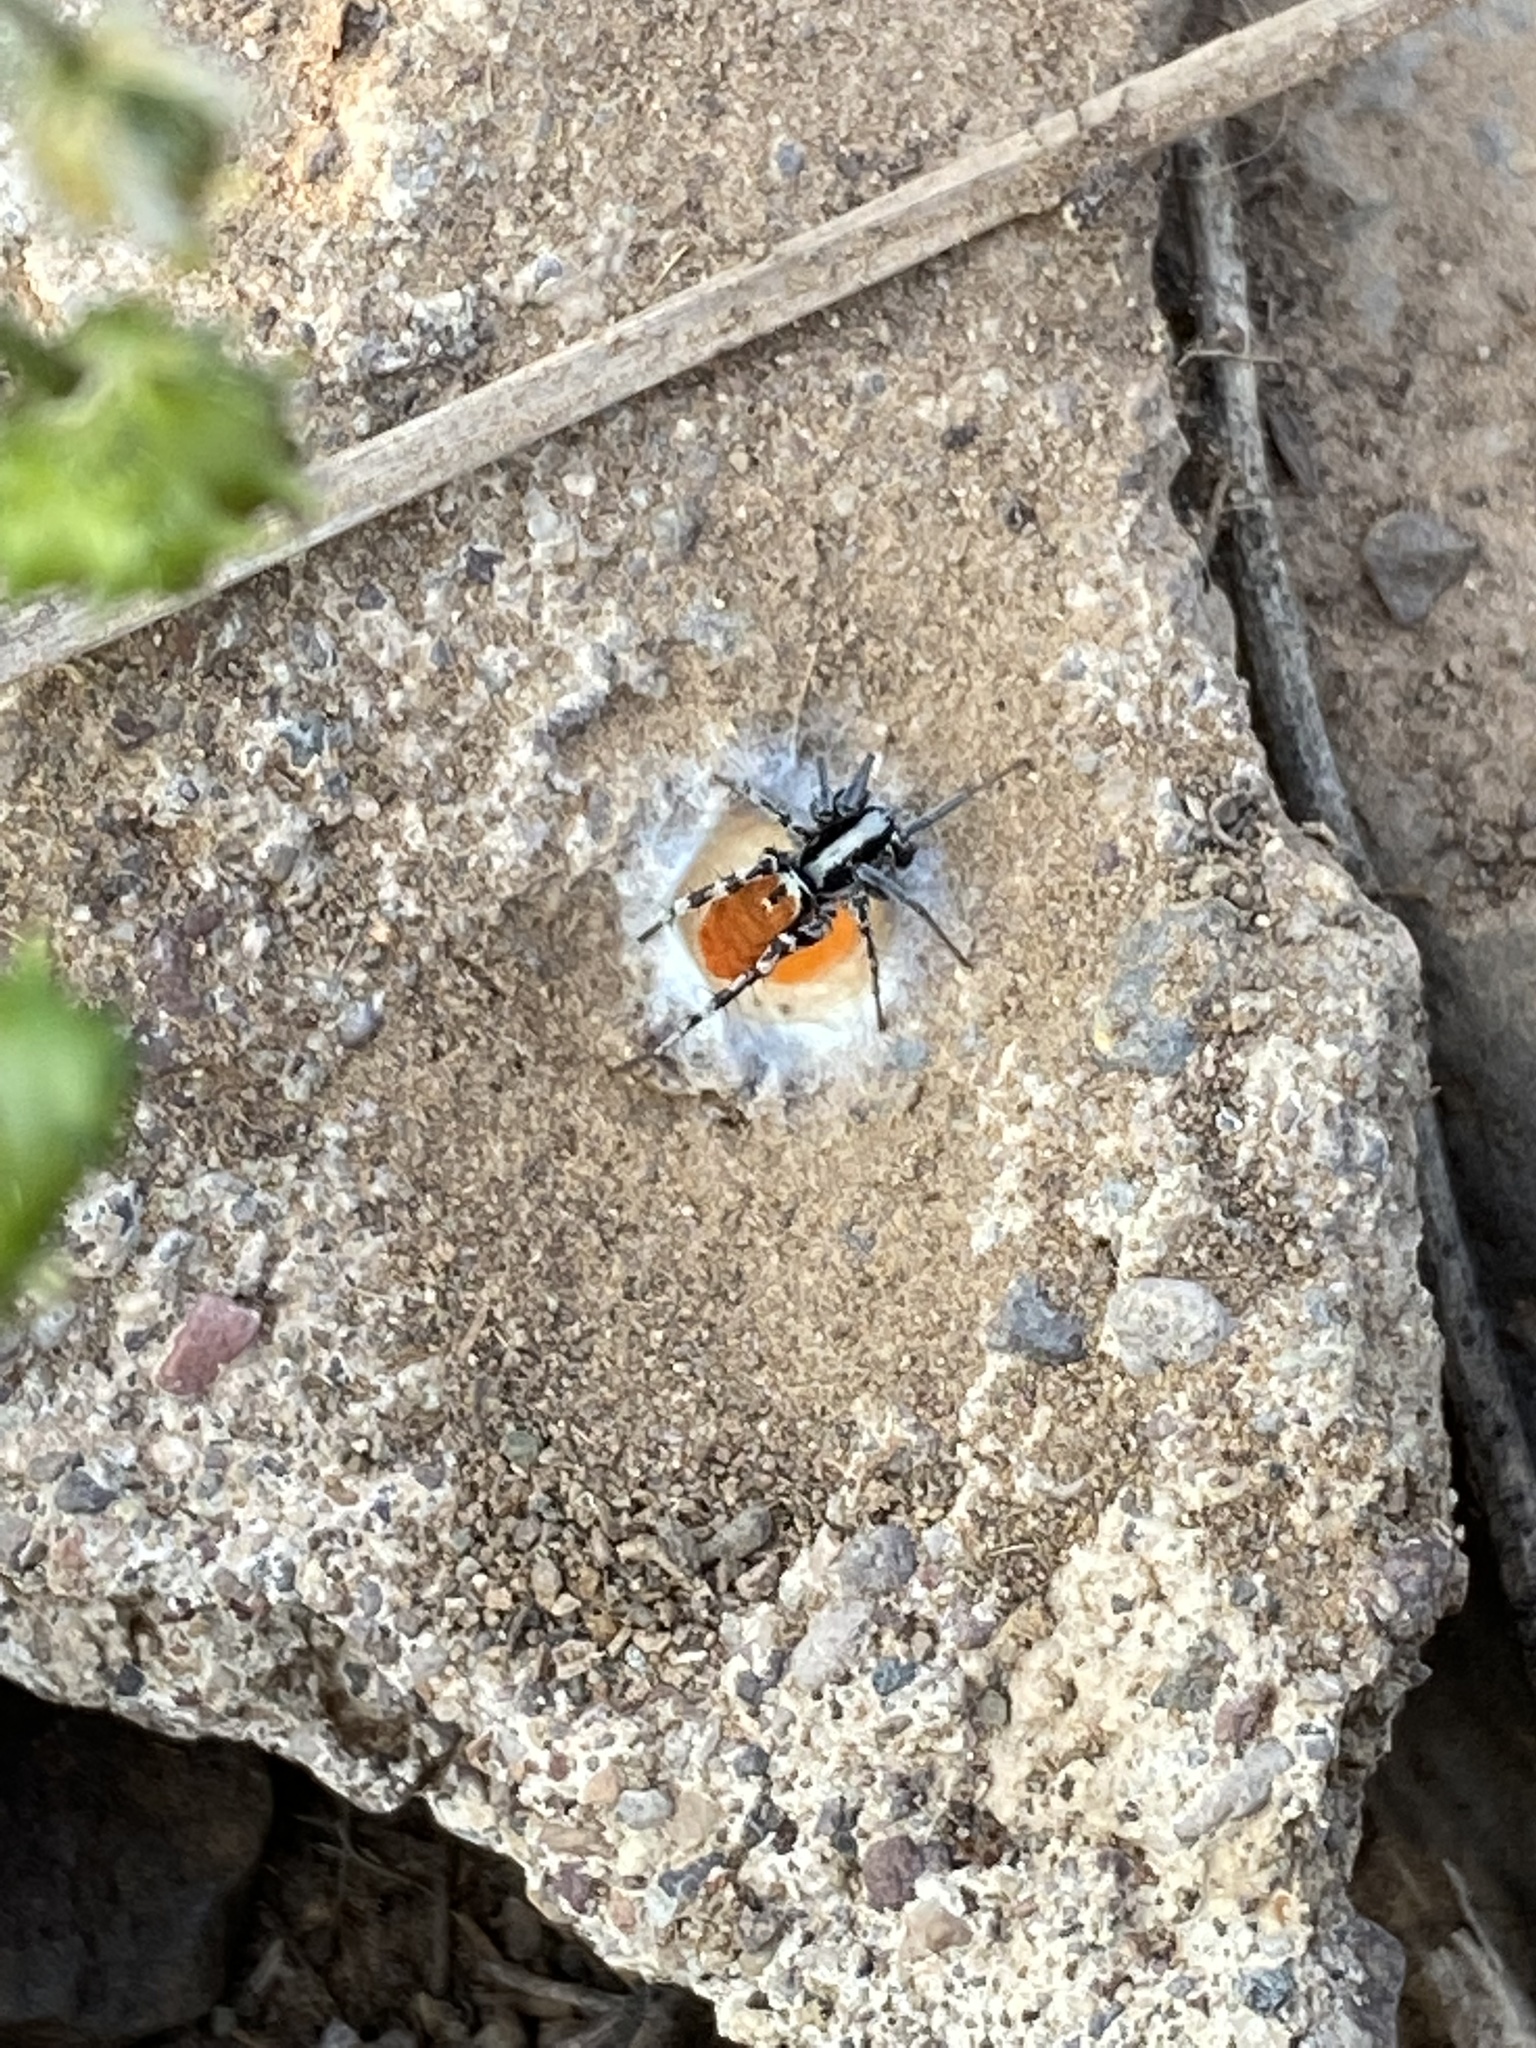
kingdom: Animalia
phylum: Arthropoda
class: Arachnida
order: Araneae
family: Corinnidae
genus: Castianeira
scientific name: Castianeira occidens
